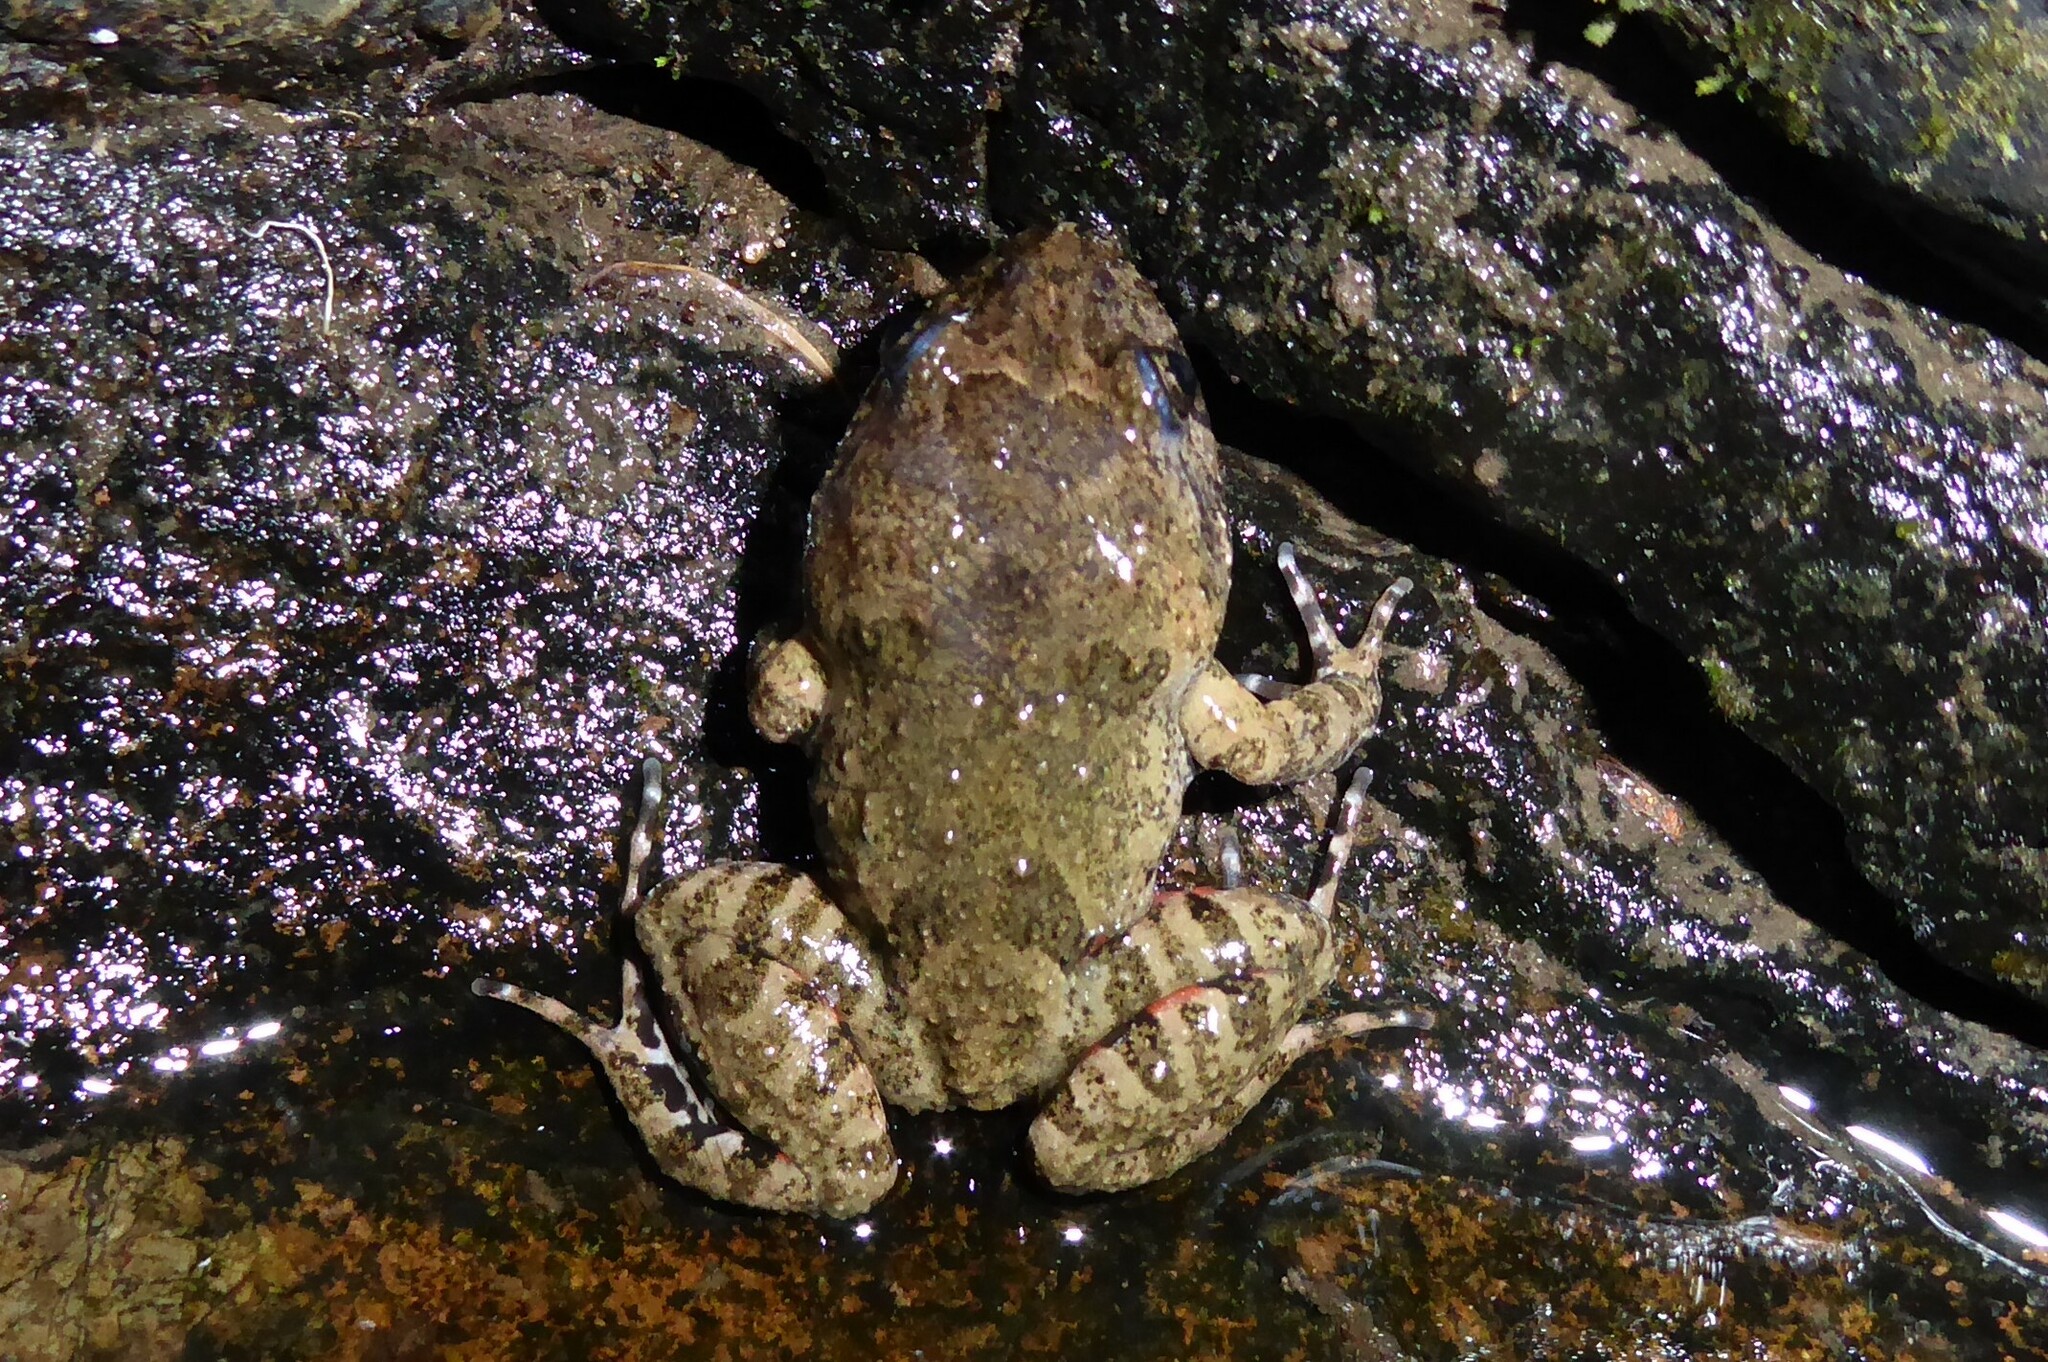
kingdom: Animalia
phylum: Chordata
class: Amphibia
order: Anura
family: Limnodynastidae
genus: Adelotus
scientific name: Adelotus brevis
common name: Tusked frog
